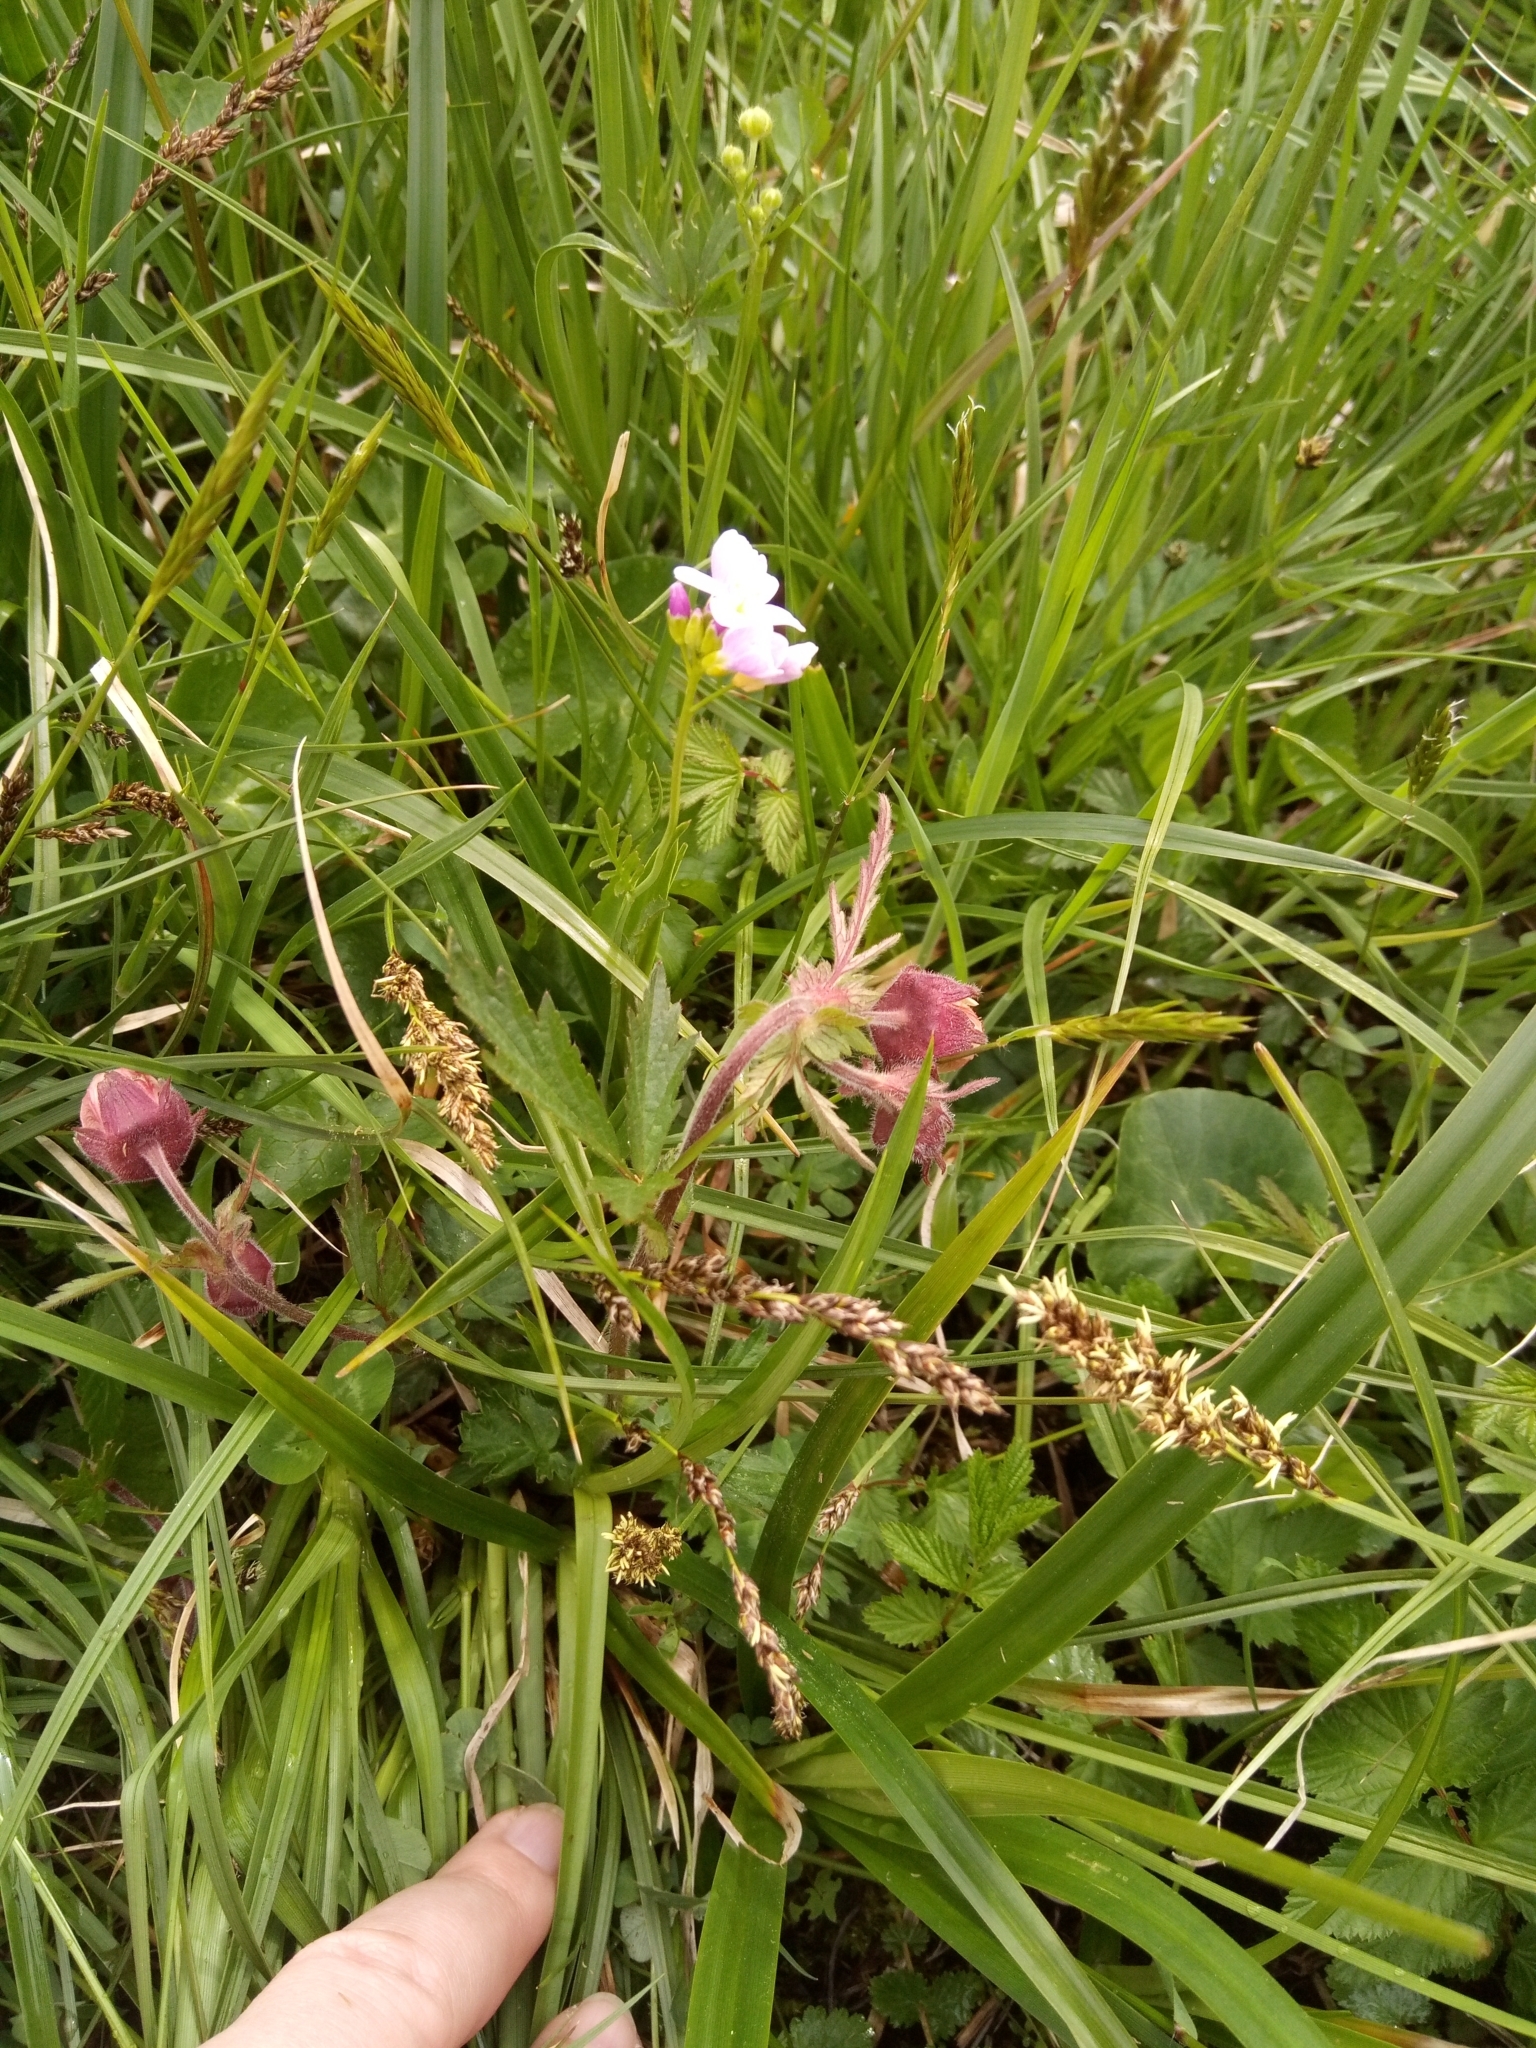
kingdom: Plantae
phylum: Tracheophyta
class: Magnoliopsida
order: Rosales
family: Rosaceae
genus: Geum
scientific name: Geum rivale
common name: Water avens
